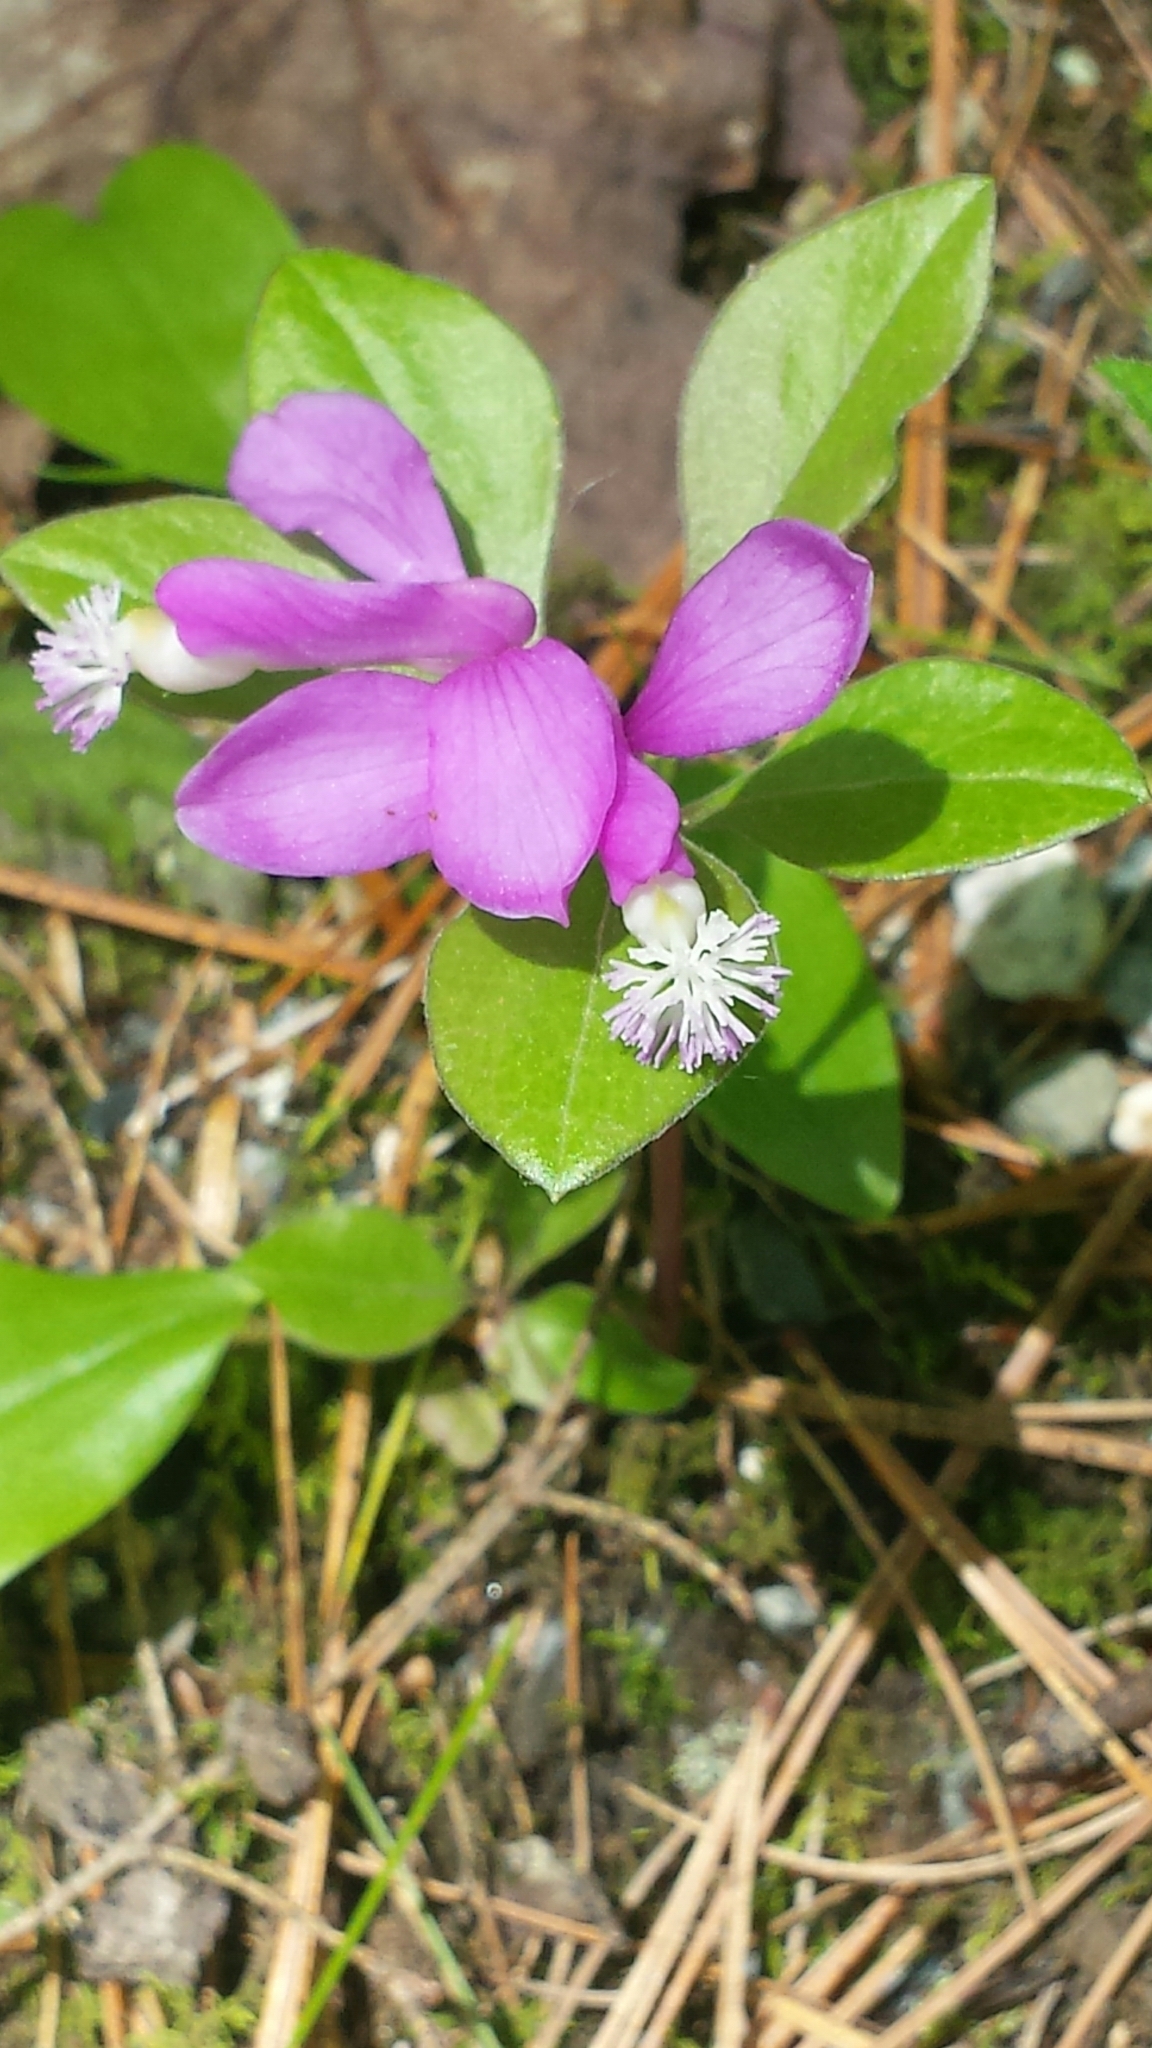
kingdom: Plantae
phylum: Tracheophyta
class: Magnoliopsida
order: Fabales
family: Polygalaceae
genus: Polygaloides
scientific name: Polygaloides paucifolia
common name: Bird-on-the-wing
